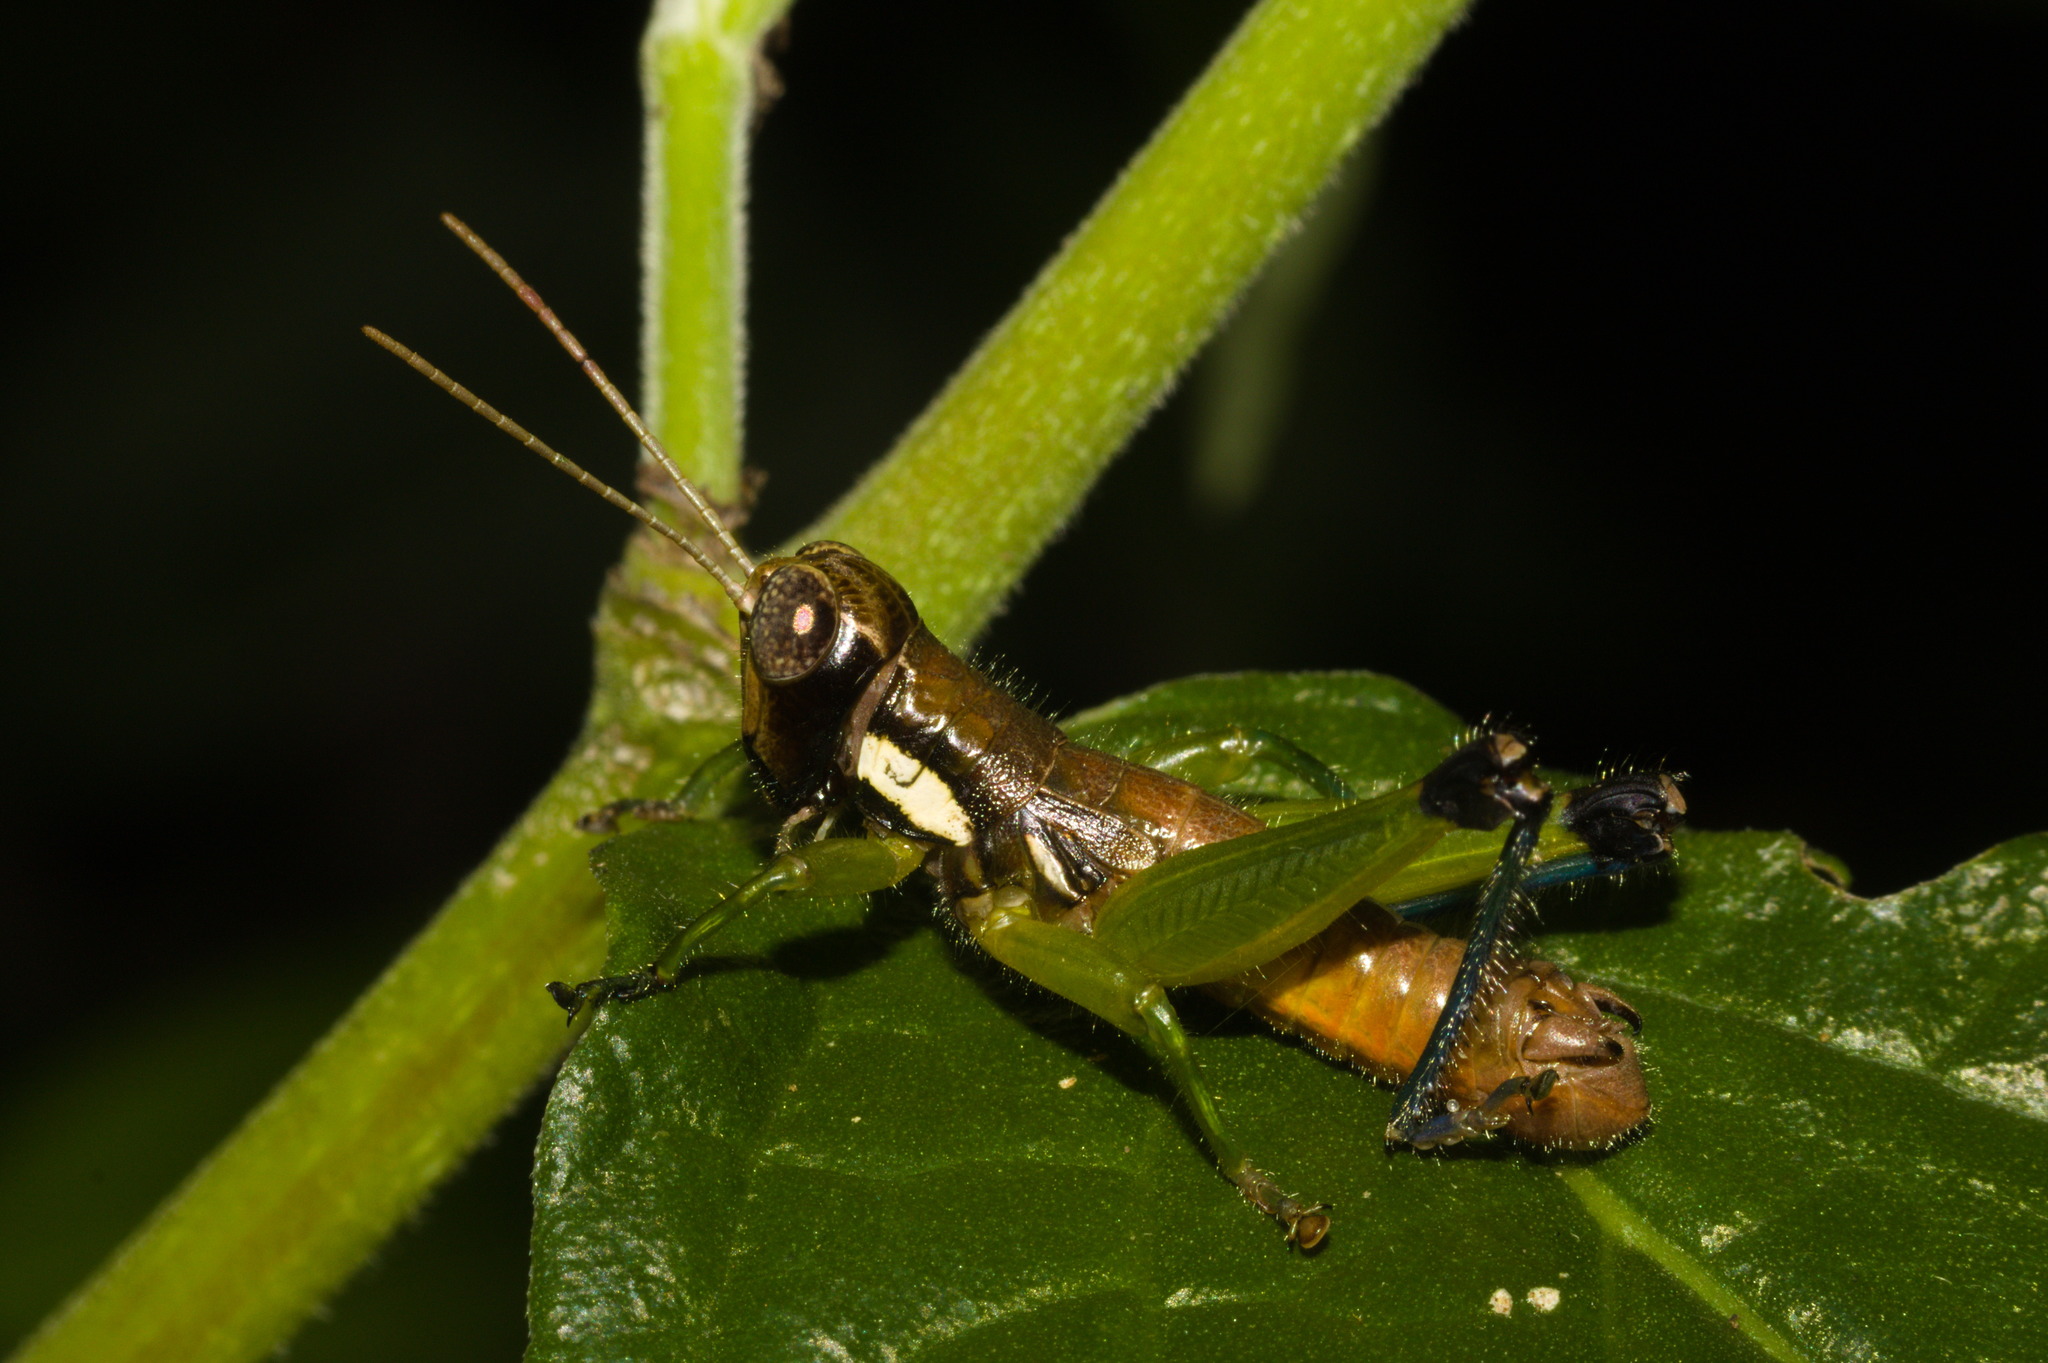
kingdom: Animalia
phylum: Arthropoda
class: Insecta
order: Orthoptera
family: Acrididae
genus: Pseudoscopas
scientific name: Pseudoscopas nigrigena
